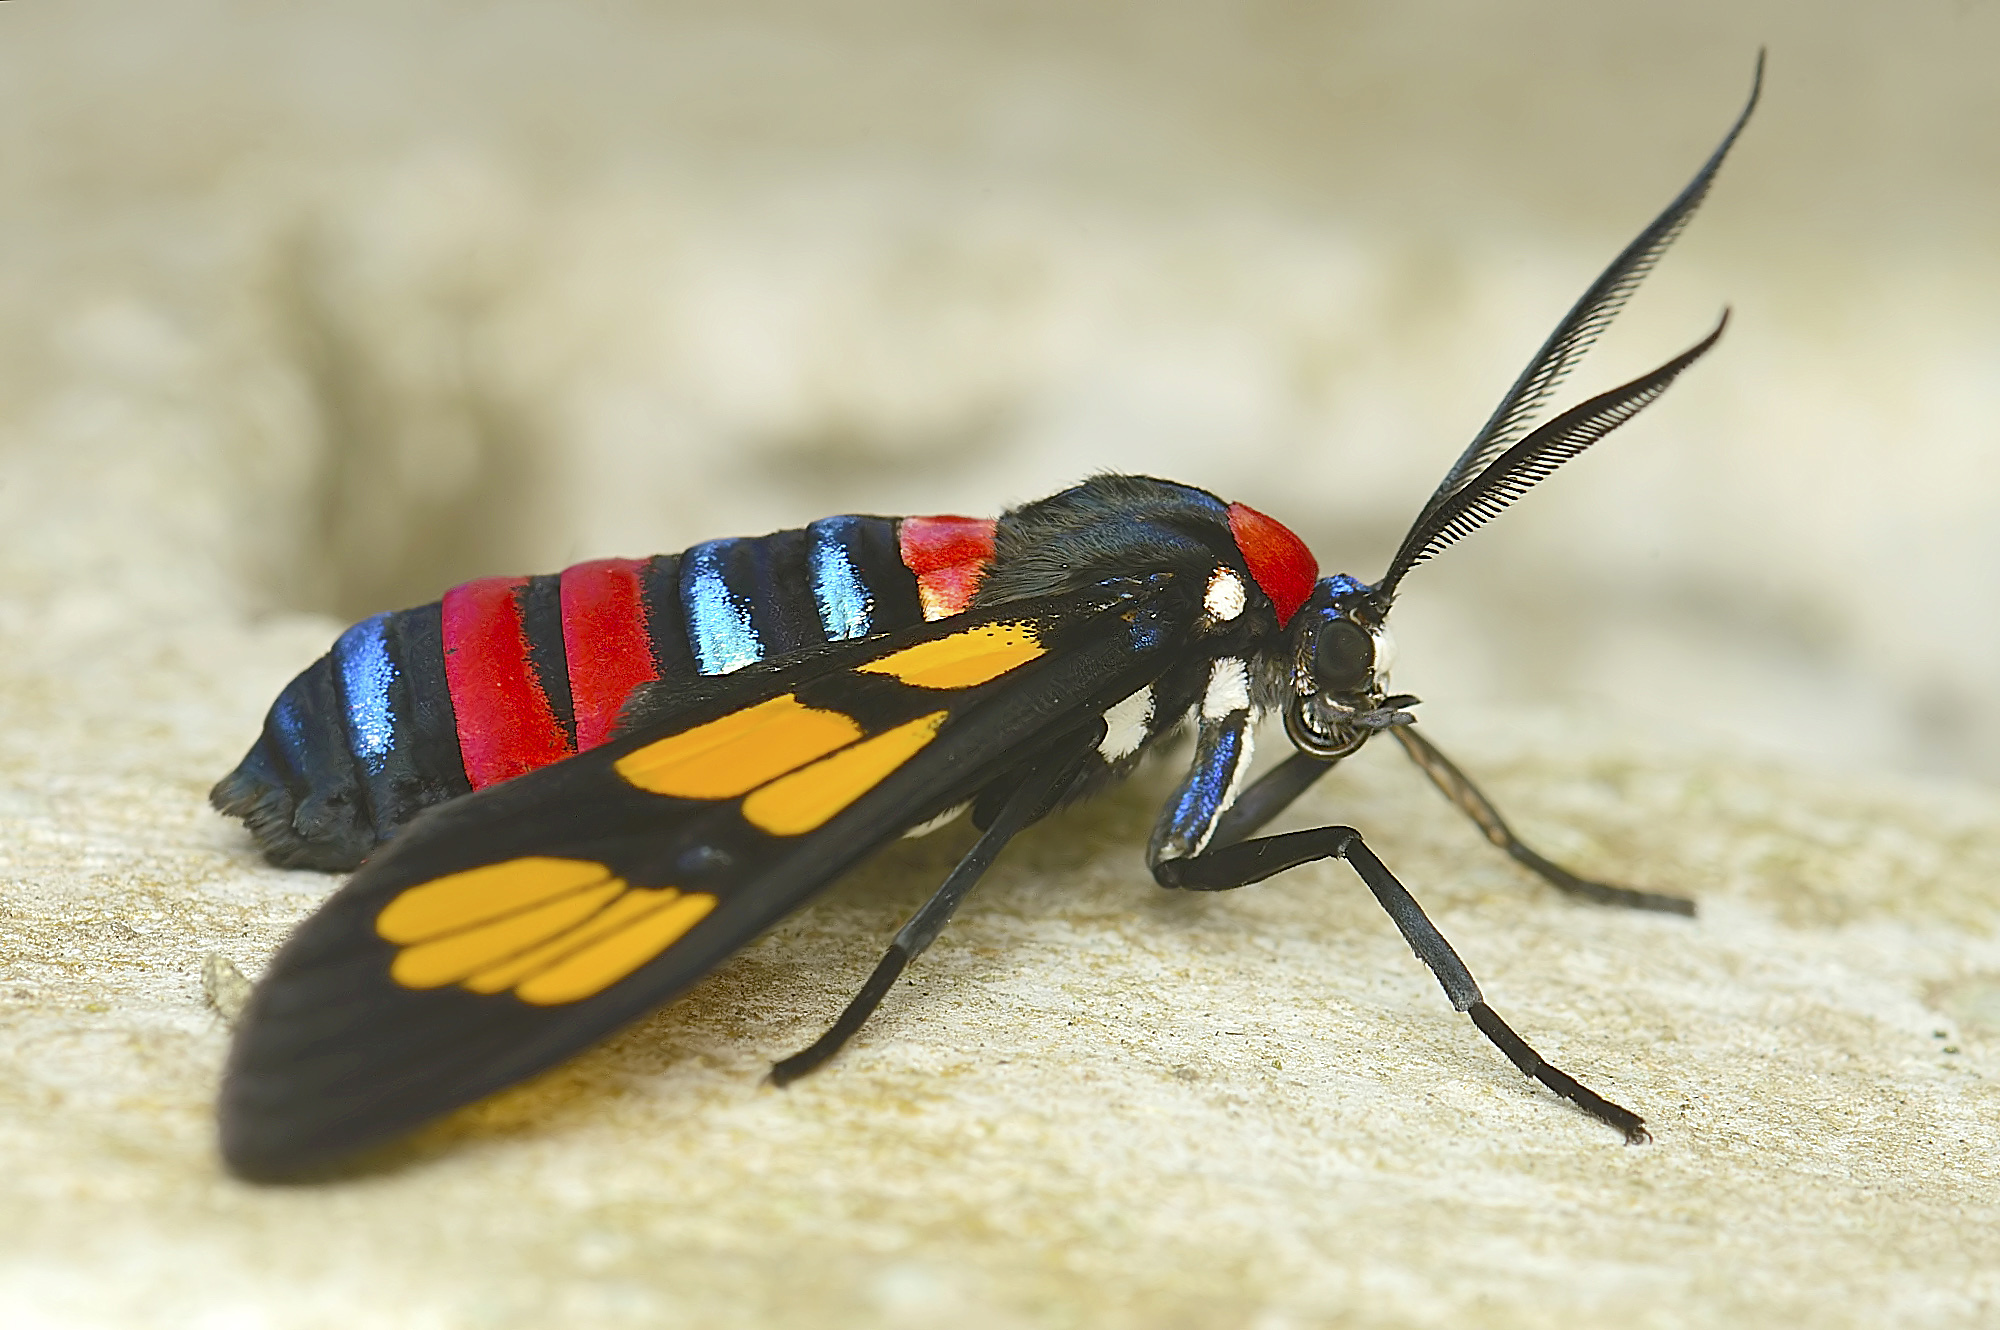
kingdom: Animalia
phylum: Arthropoda
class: Insecta
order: Lepidoptera
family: Erebidae
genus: Euchromia
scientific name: Euchromia polymena
